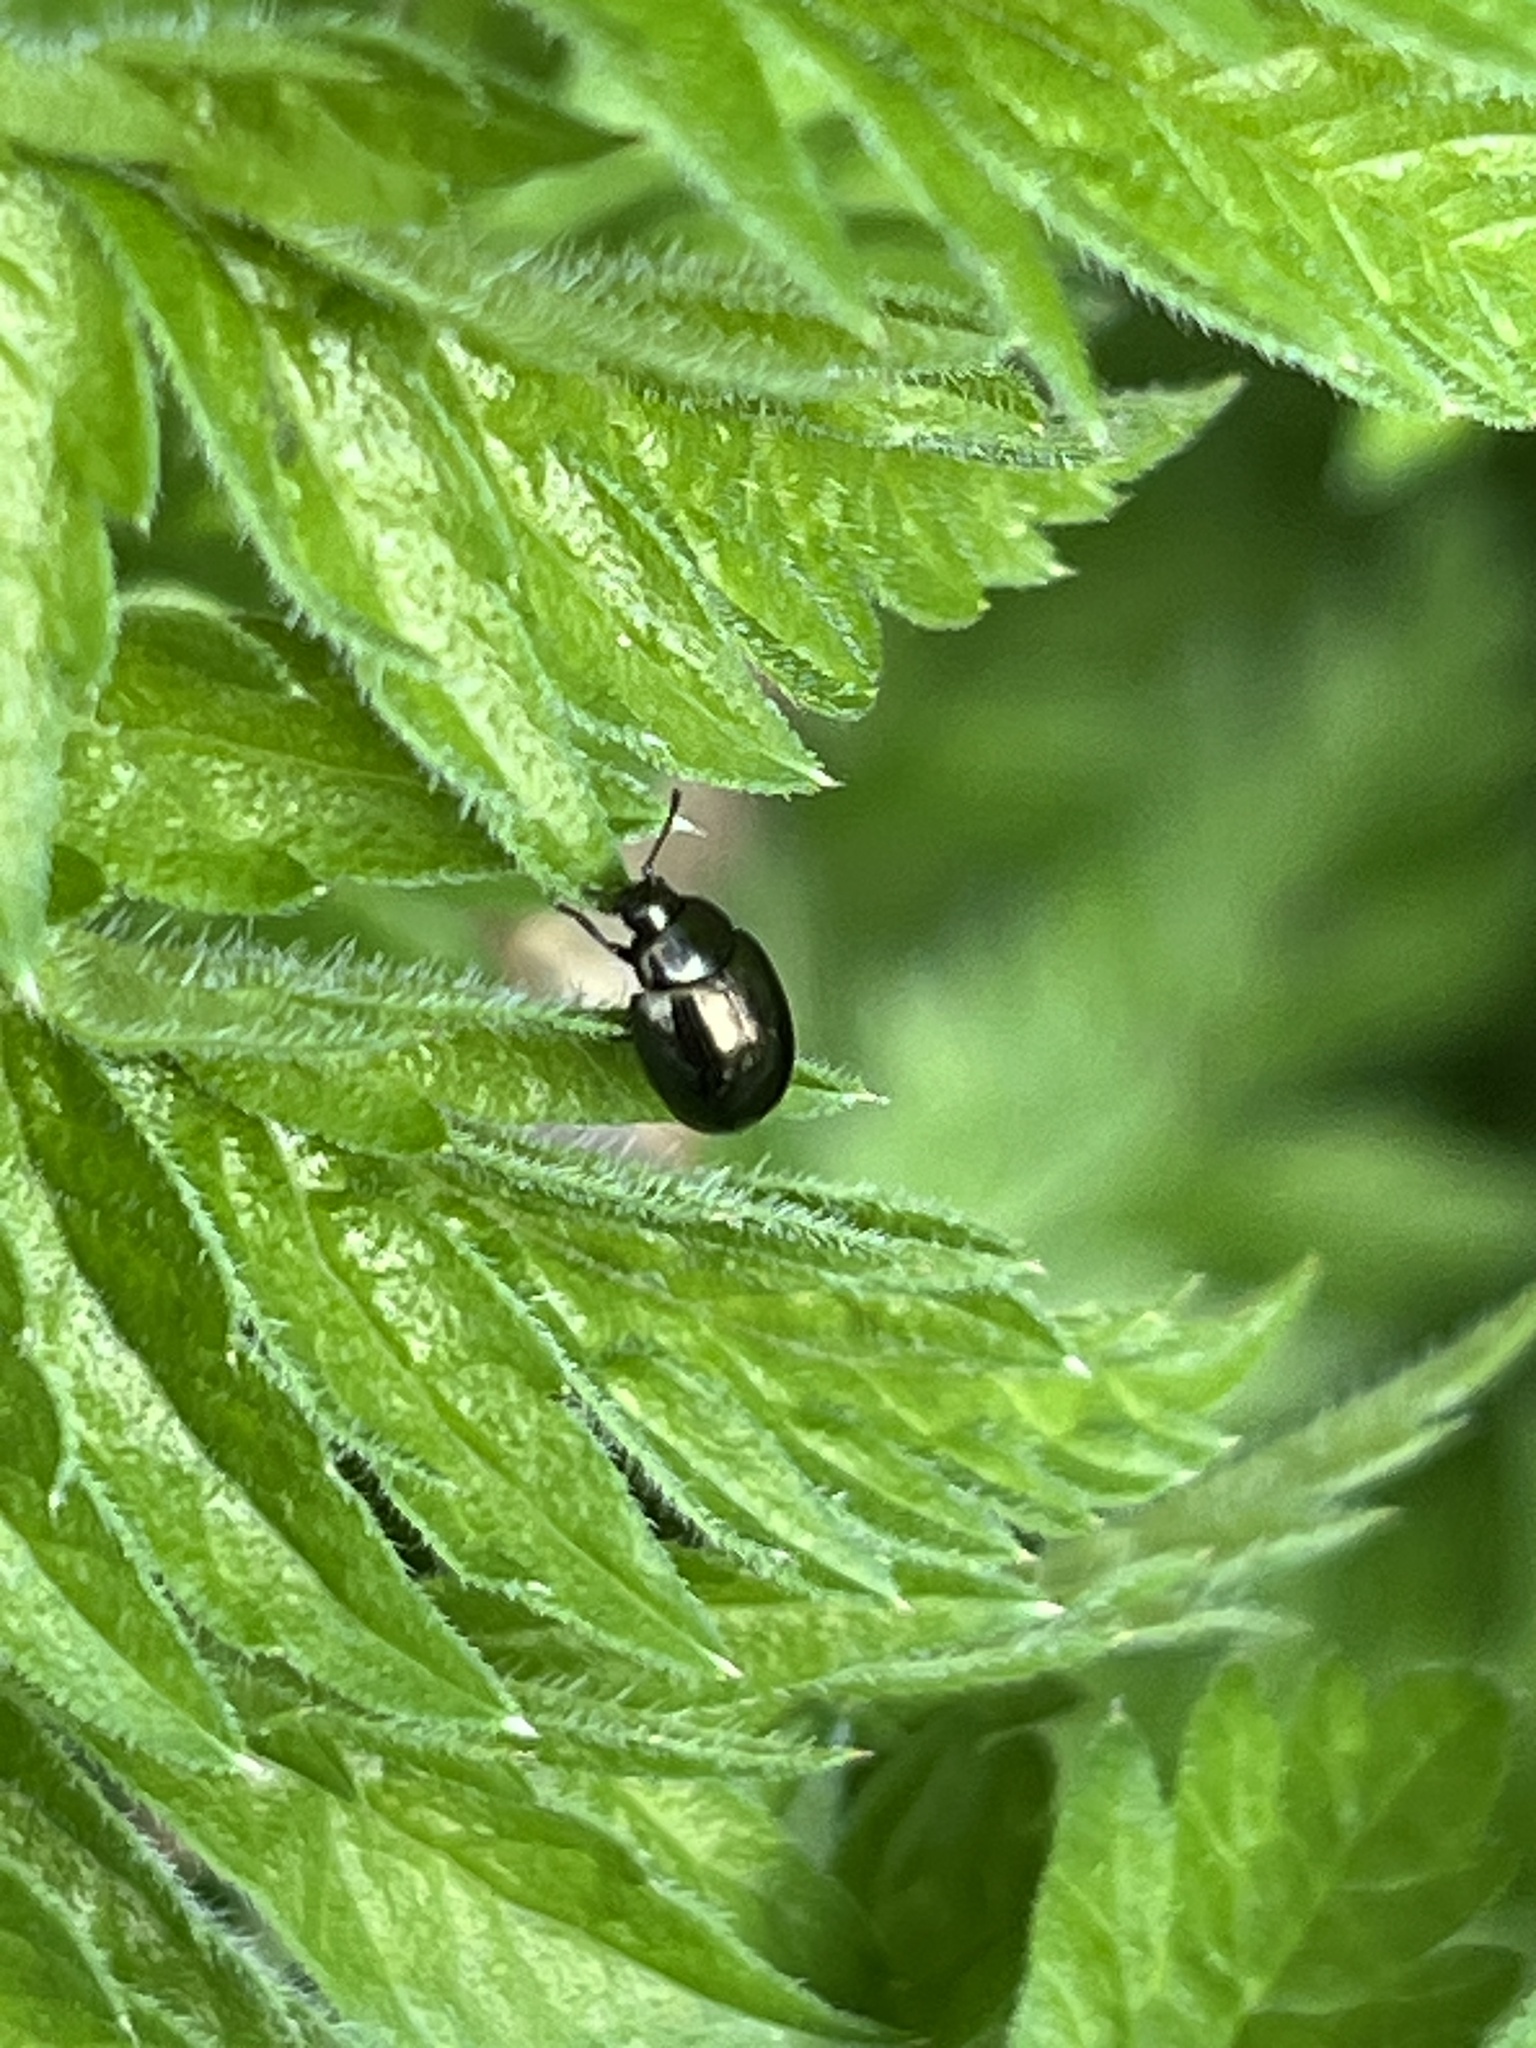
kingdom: Animalia
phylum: Arthropoda
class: Insecta
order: Coleoptera
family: Chrysomelidae
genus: Phaedon
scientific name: Phaedon tumidulus
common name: Celery leaf beetle
